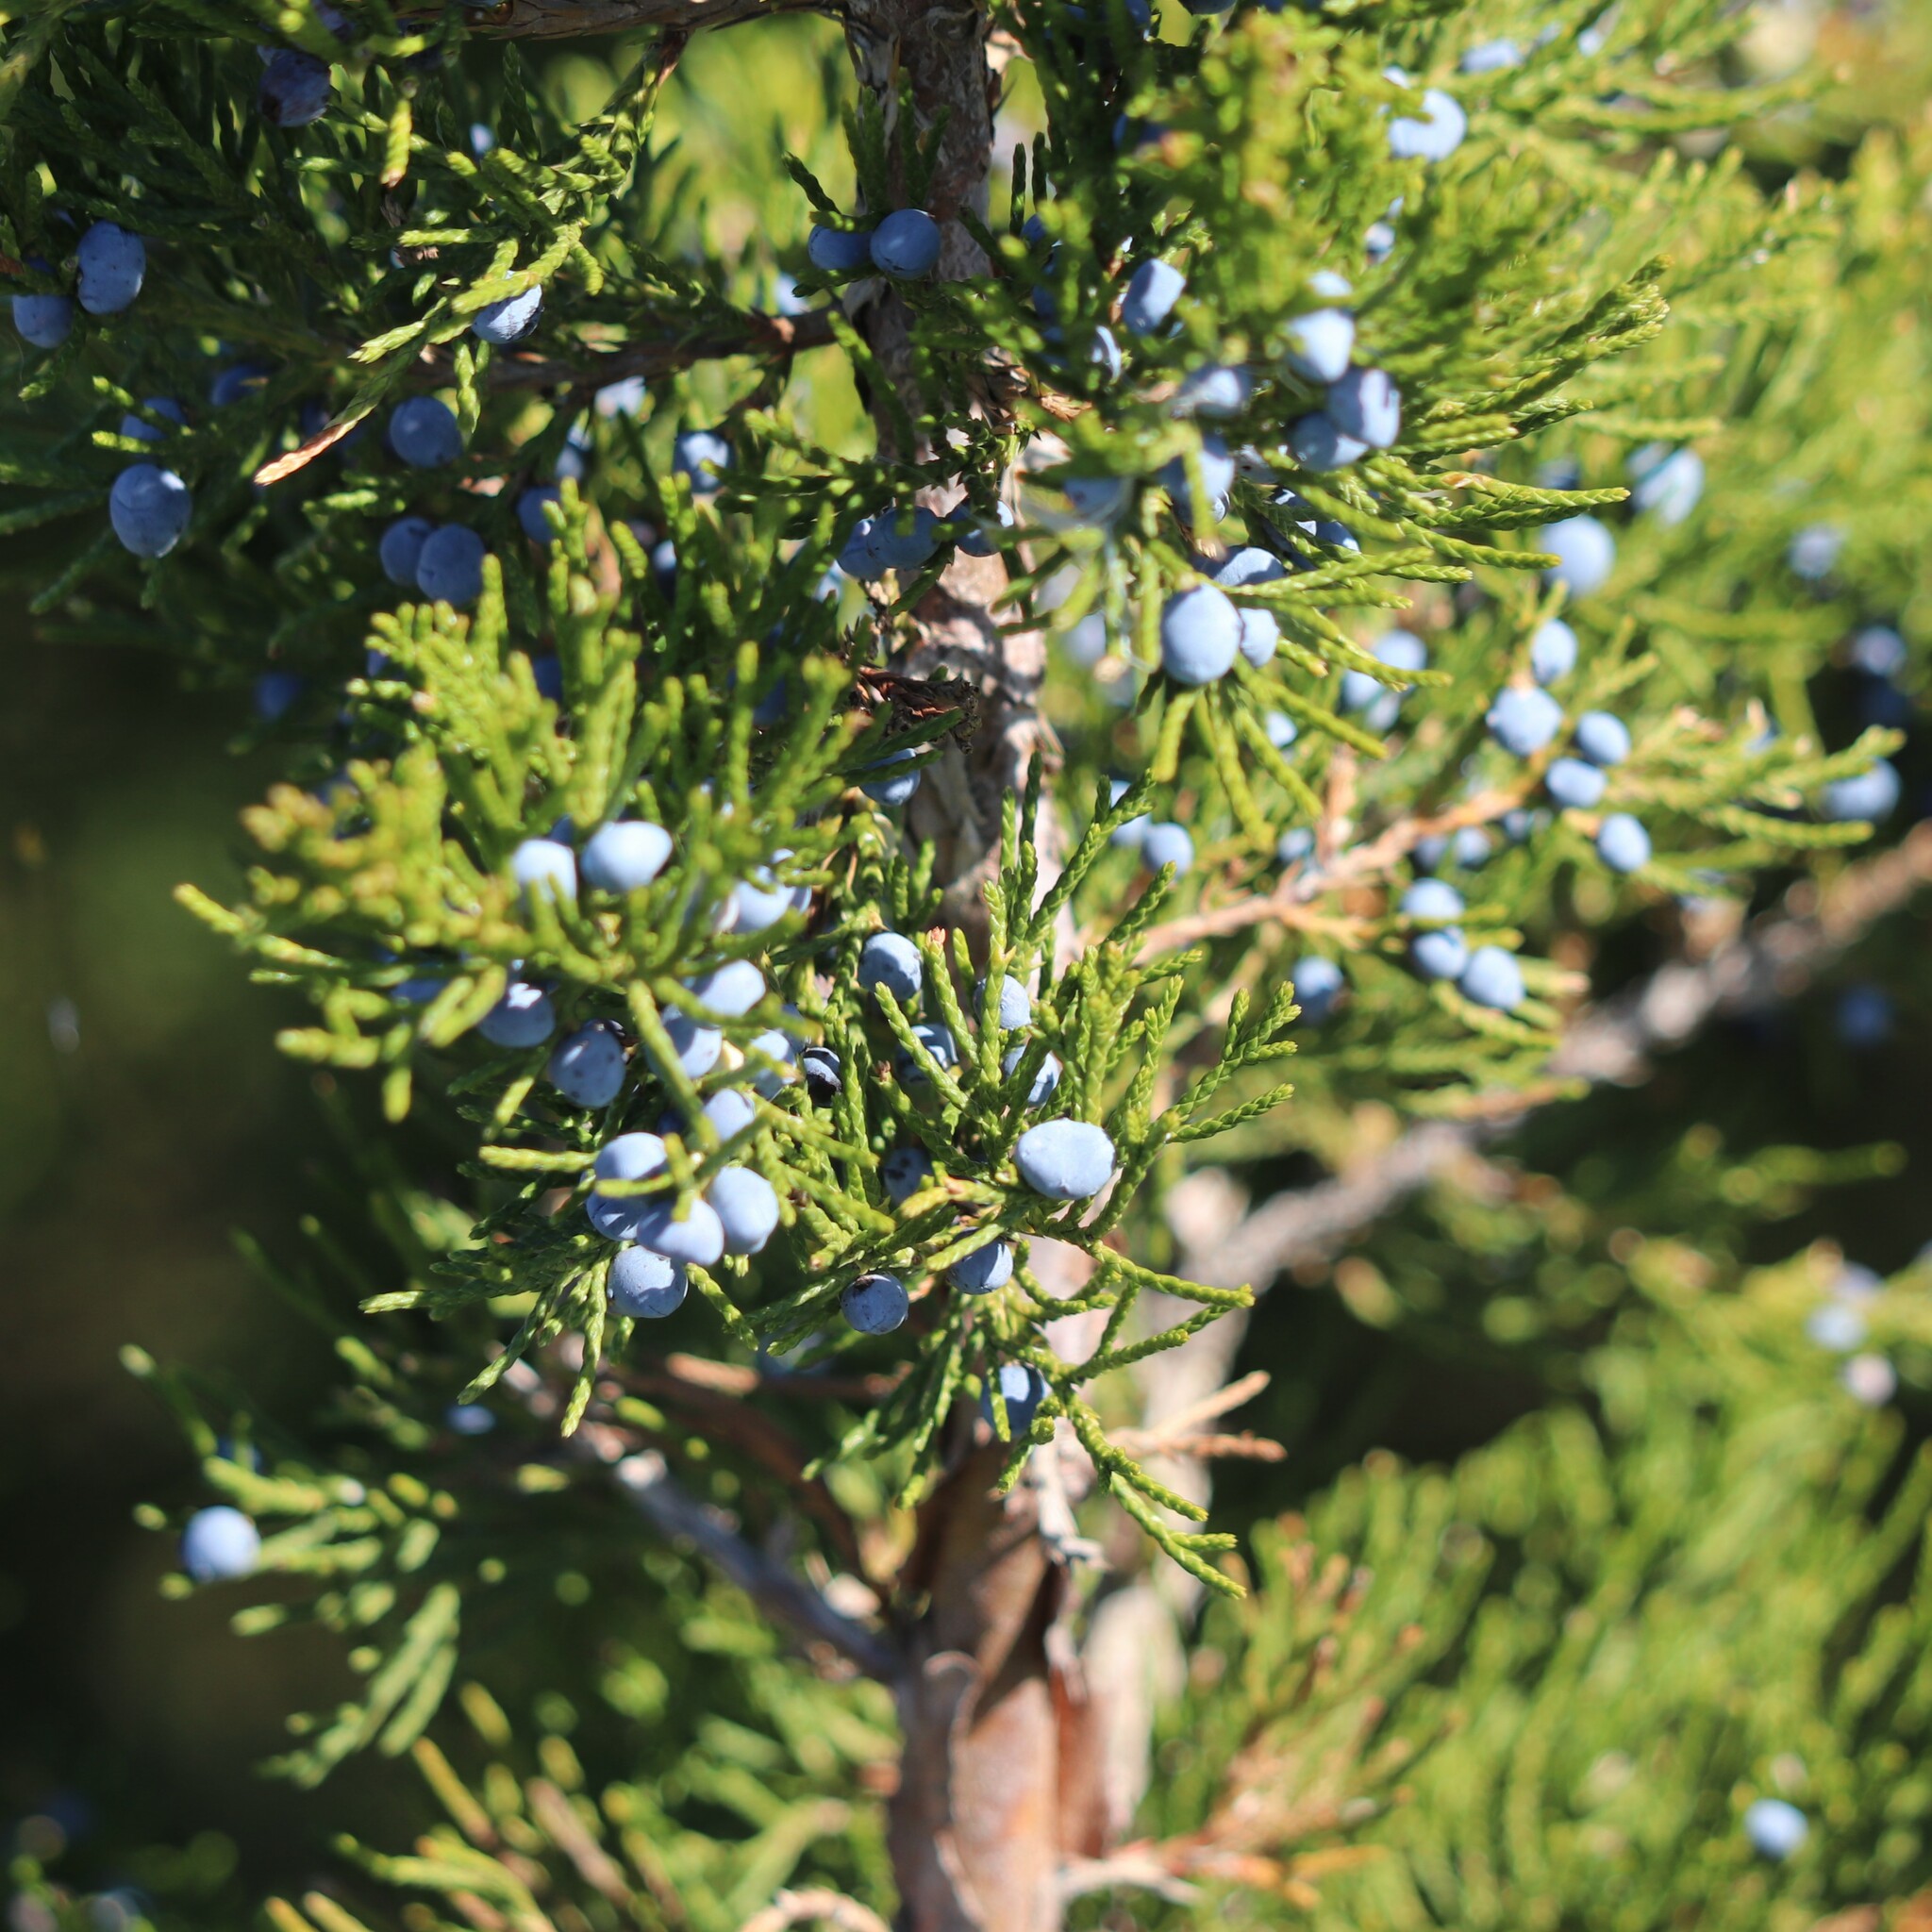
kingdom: Plantae
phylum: Tracheophyta
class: Pinopsida
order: Pinales
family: Cupressaceae
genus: Juniperus
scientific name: Juniperus virginiana
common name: Red juniper
